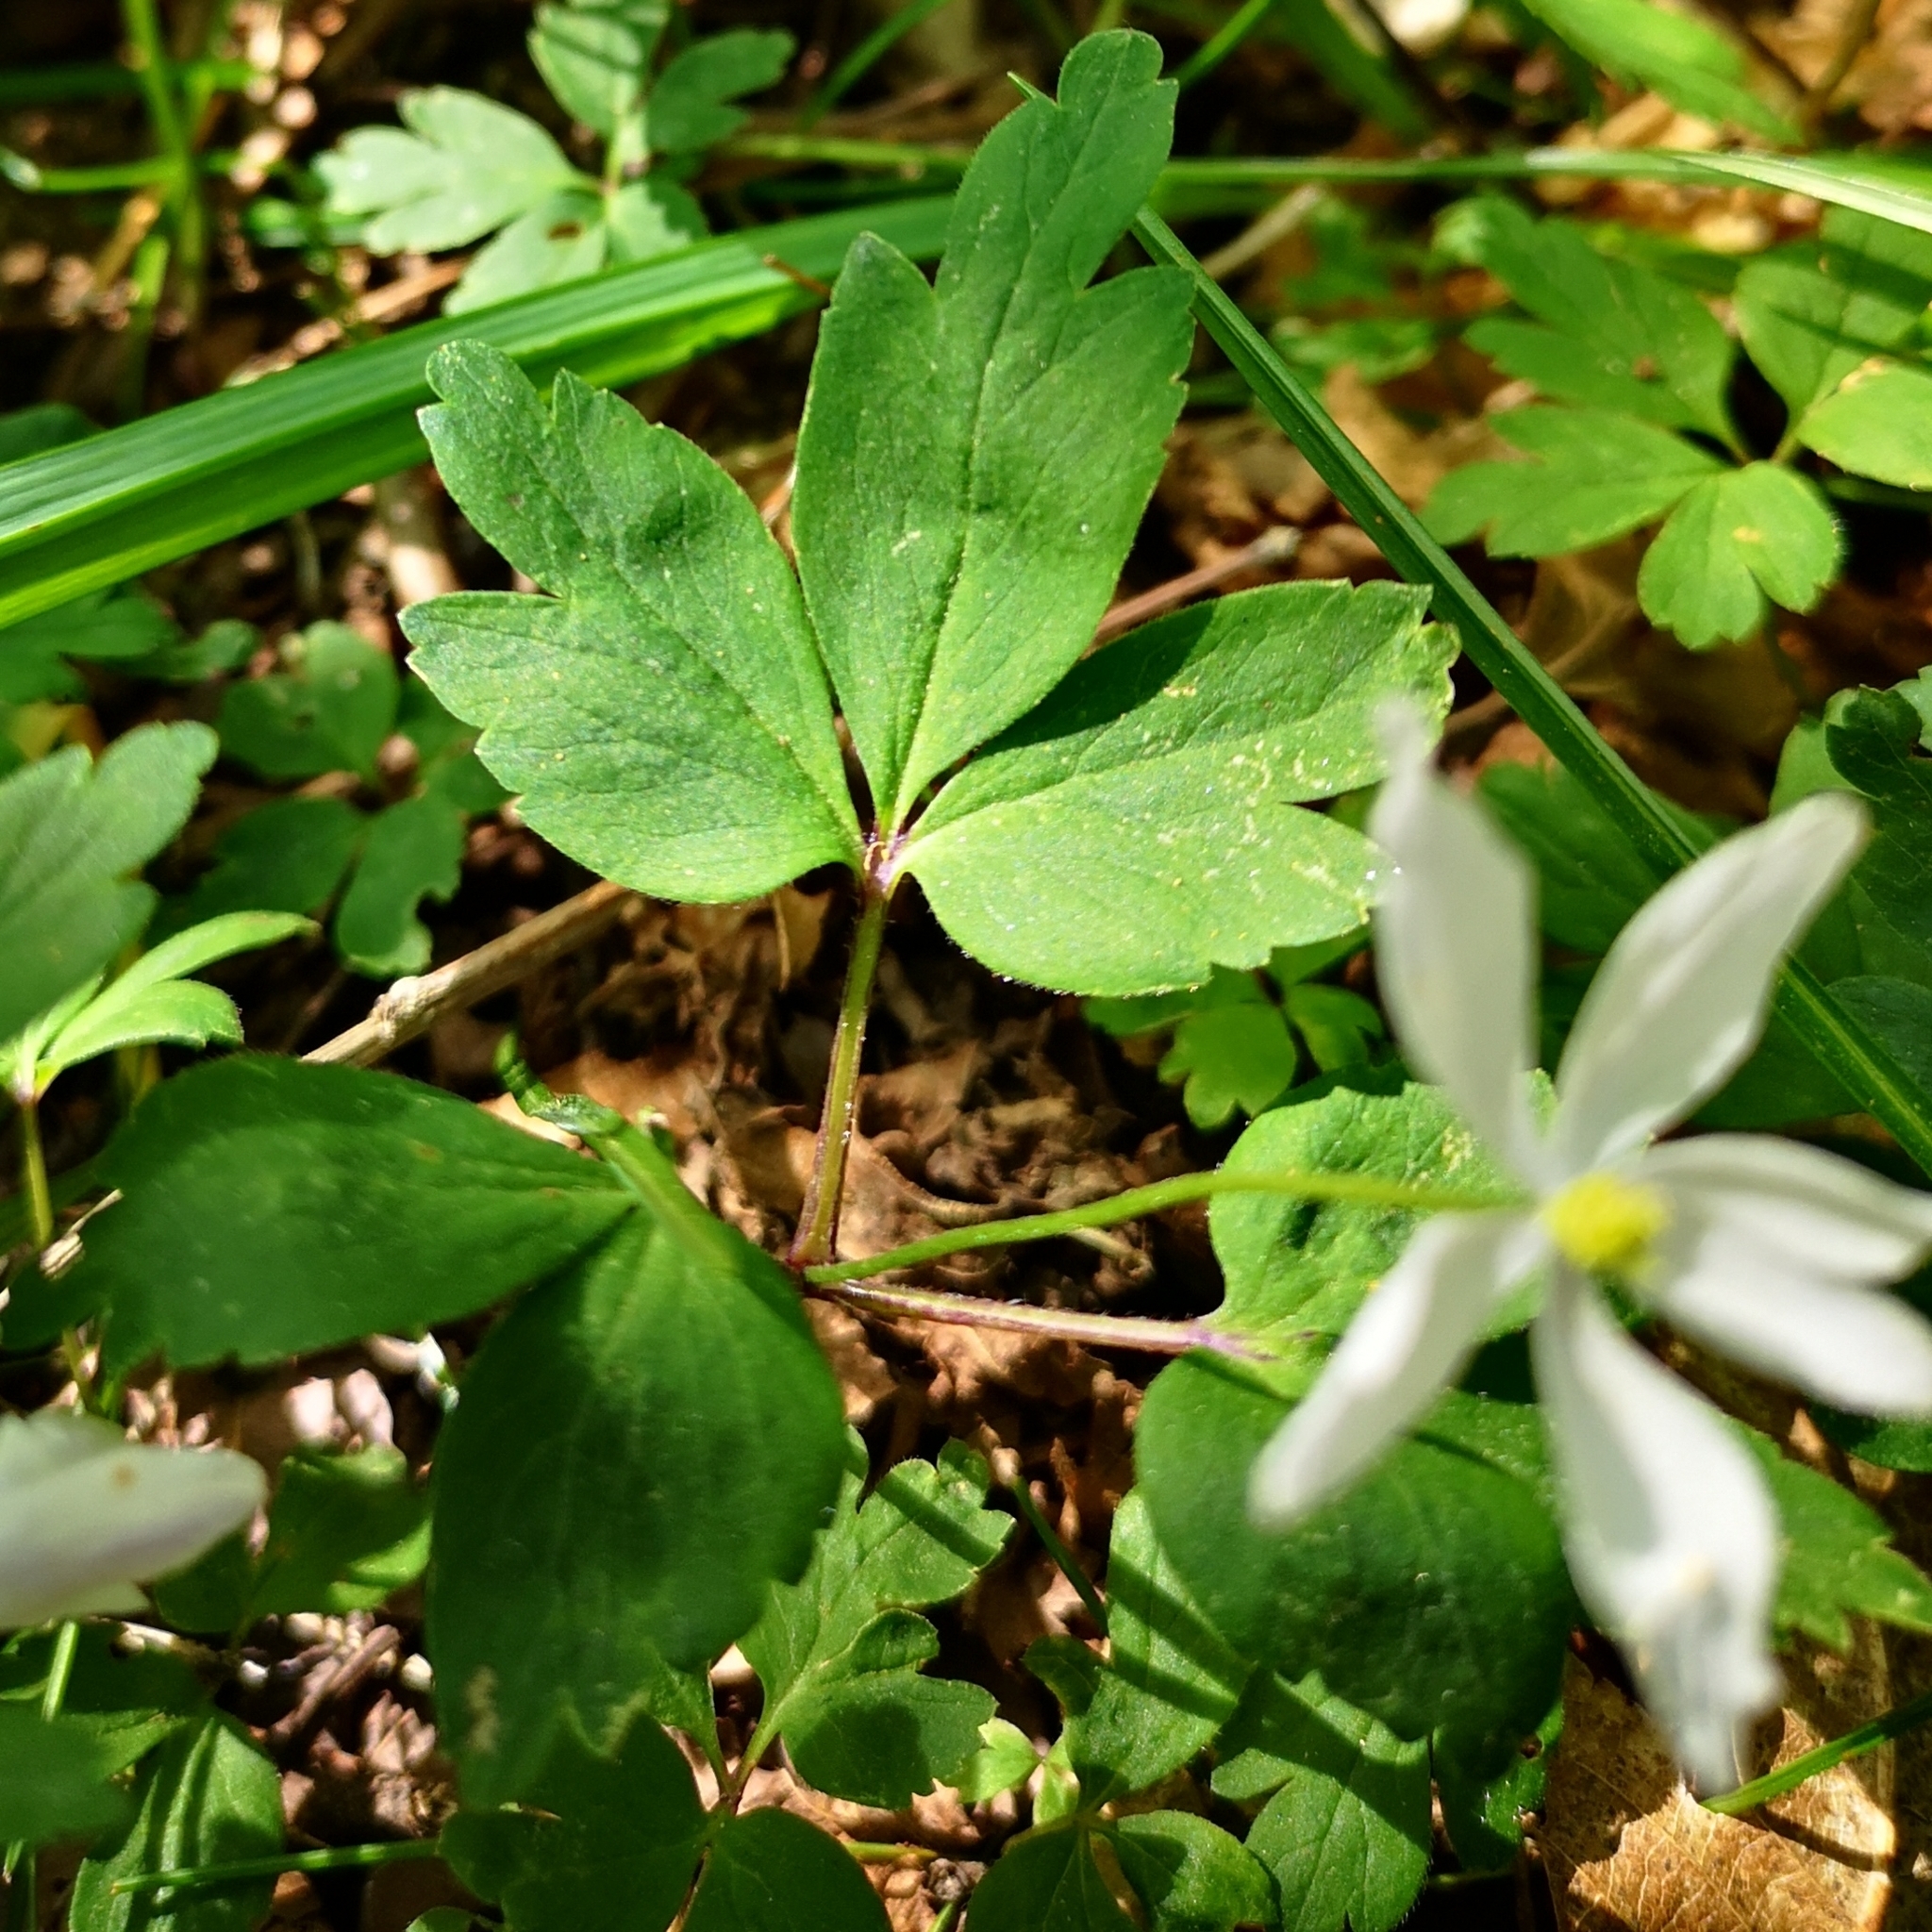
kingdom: Plantae
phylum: Tracheophyta
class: Magnoliopsida
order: Ranunculales
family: Ranunculaceae
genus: Anemone
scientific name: Anemone pittonii
